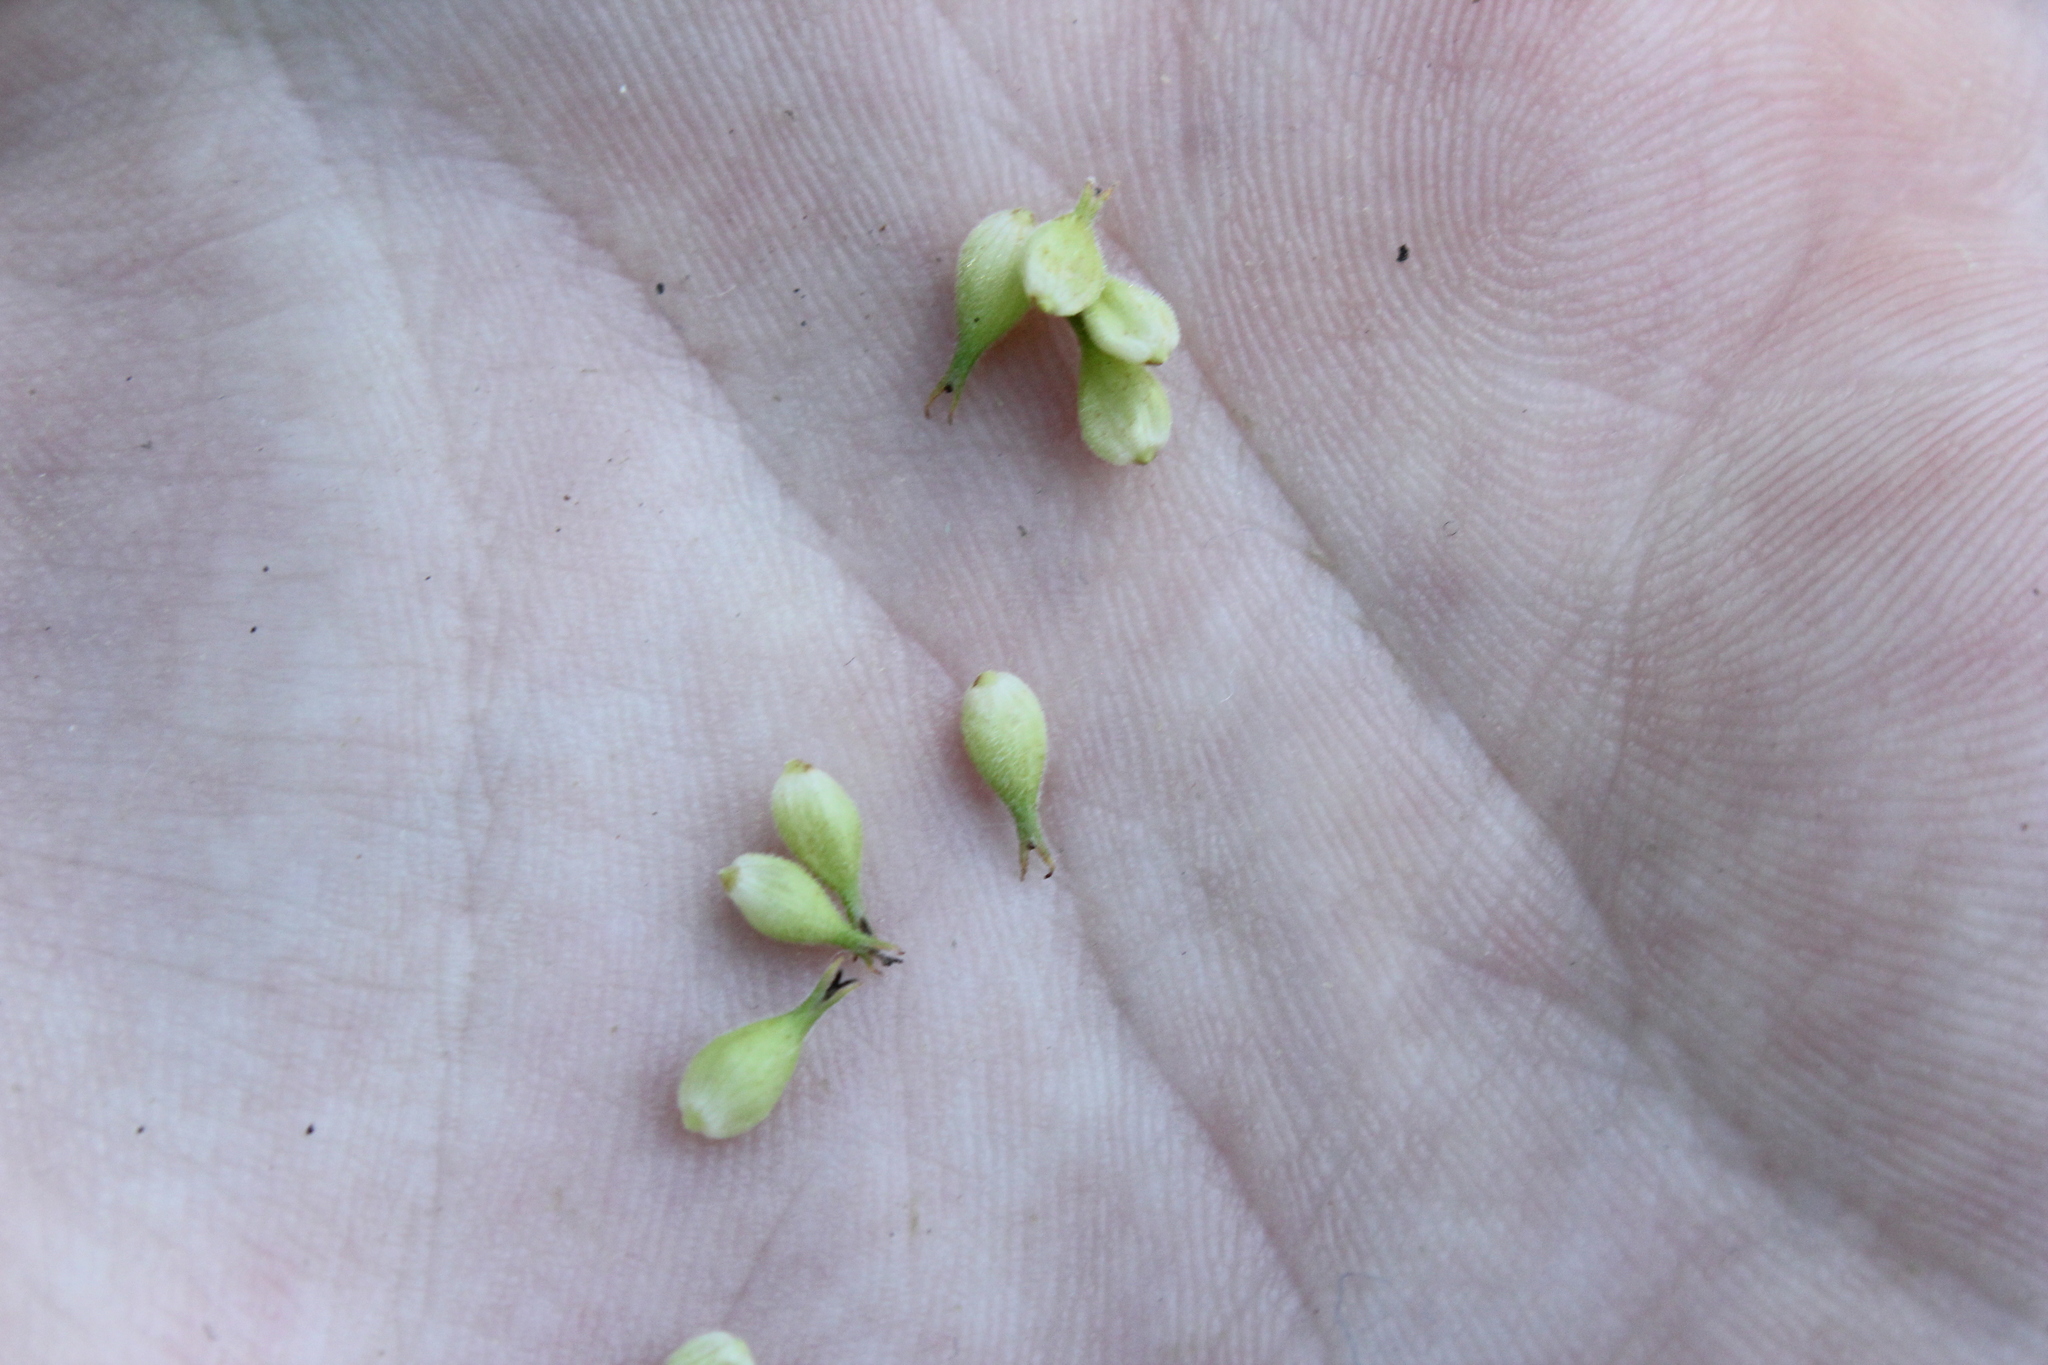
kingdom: Plantae
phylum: Tracheophyta
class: Liliopsida
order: Poales
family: Cyperaceae
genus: Carex
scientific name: Carex trichocarpa
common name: Hairy-fruited lake sedge
